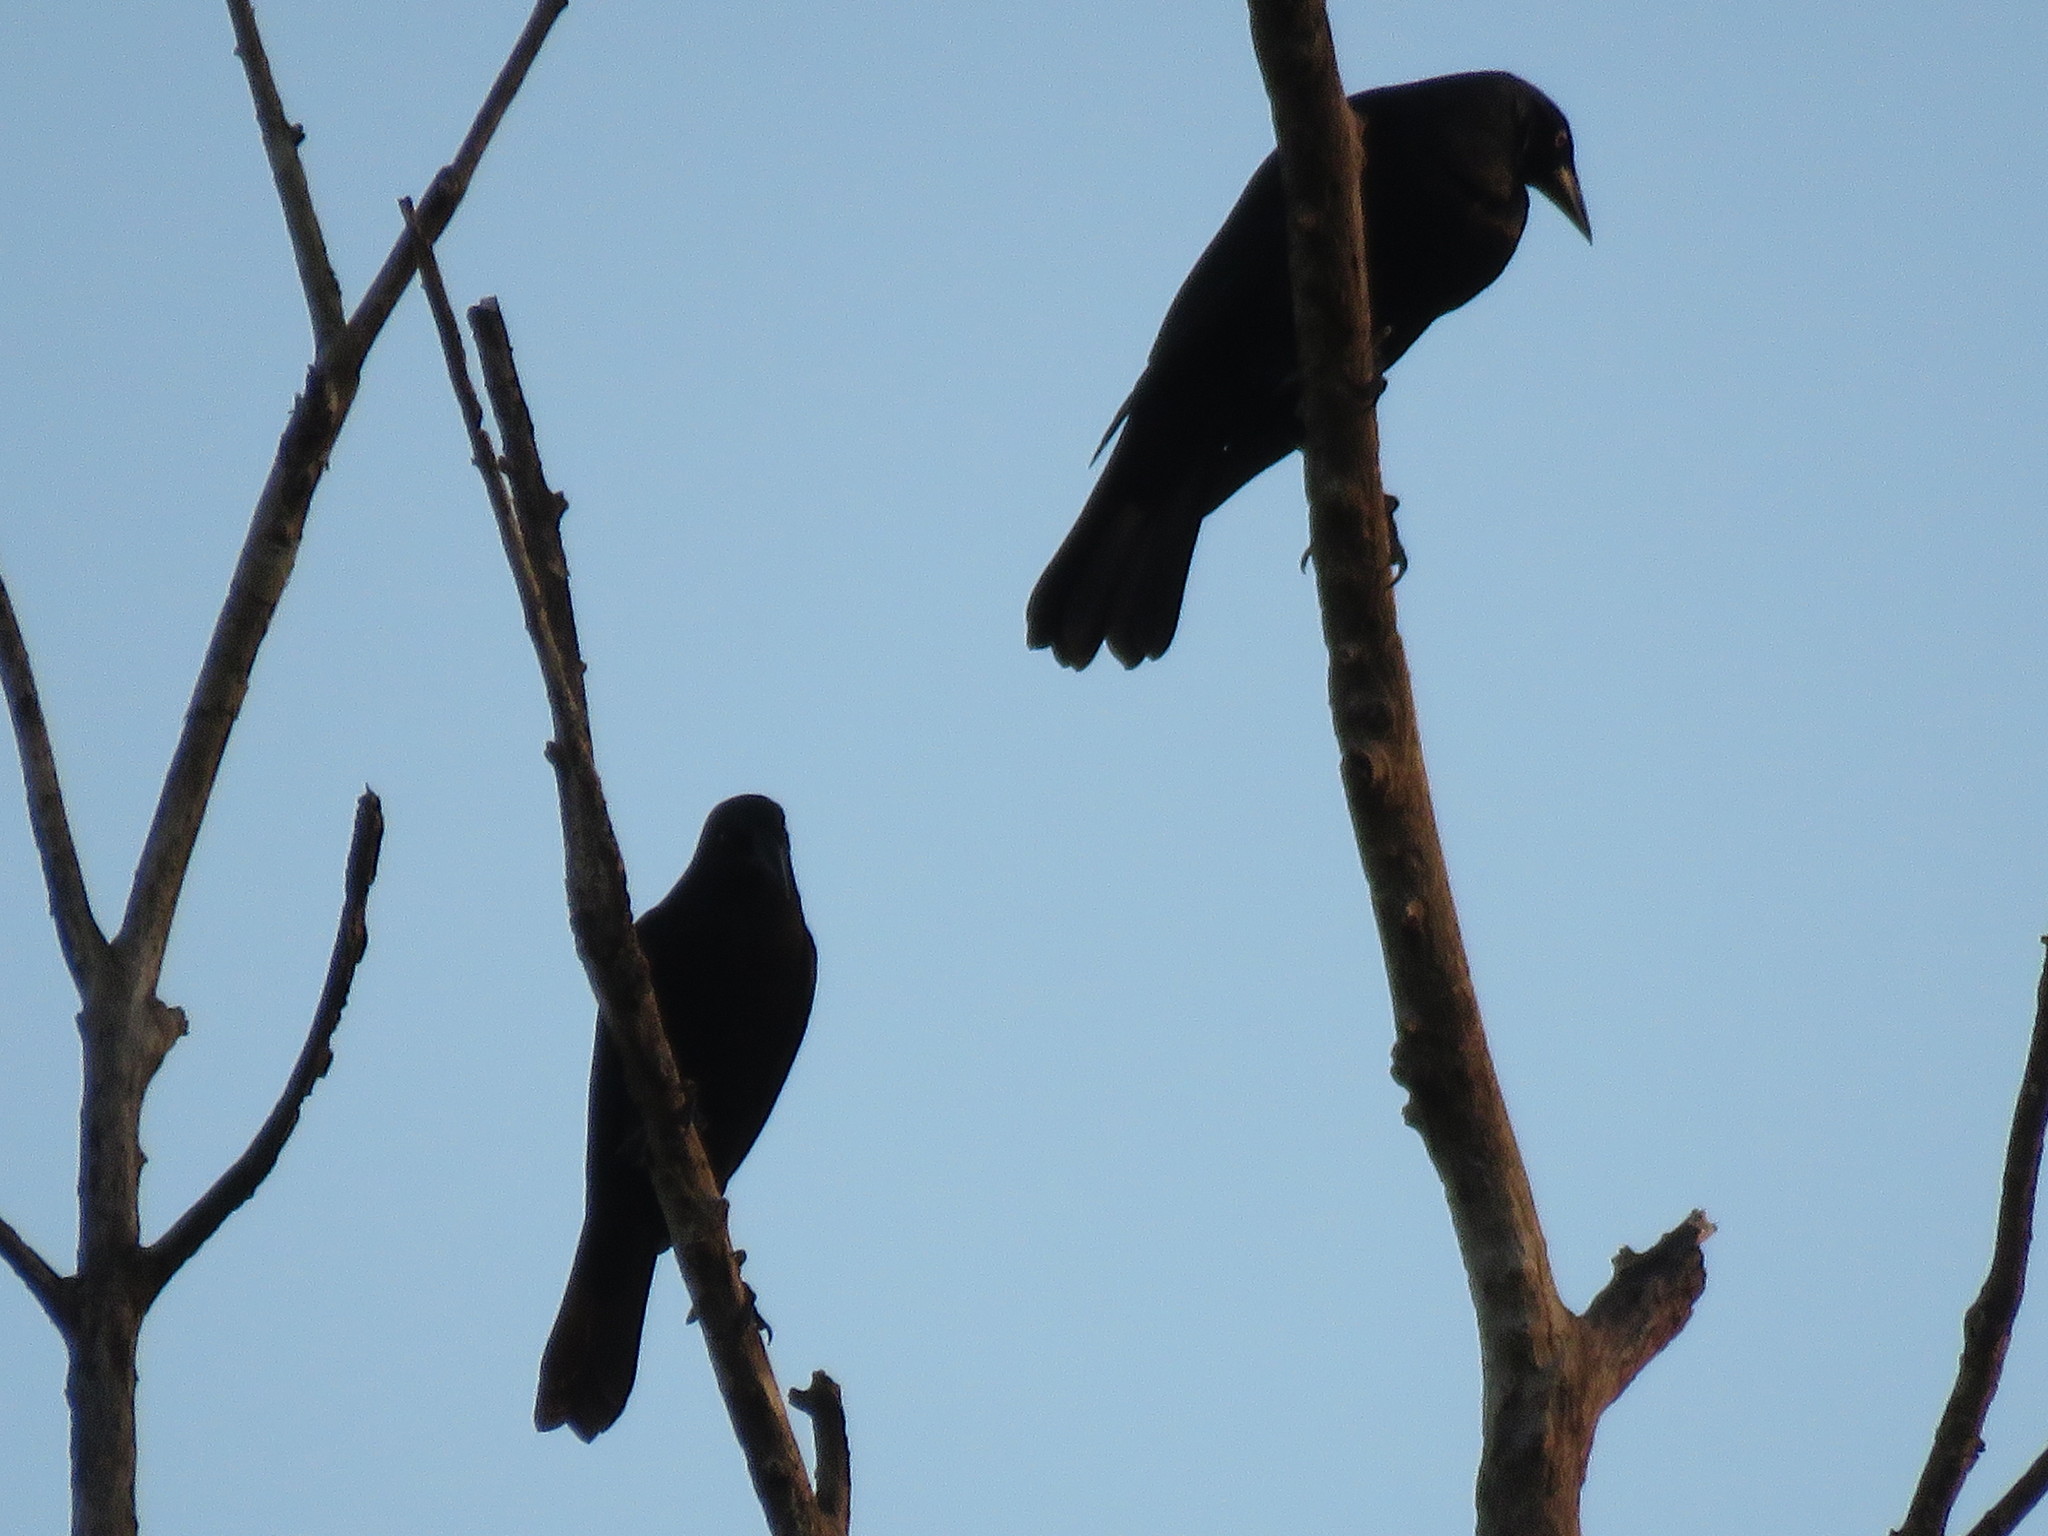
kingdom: Animalia
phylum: Chordata
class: Aves
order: Passeriformes
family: Icteridae
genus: Molothrus
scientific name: Molothrus oryzivorus
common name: Giant cowbird
